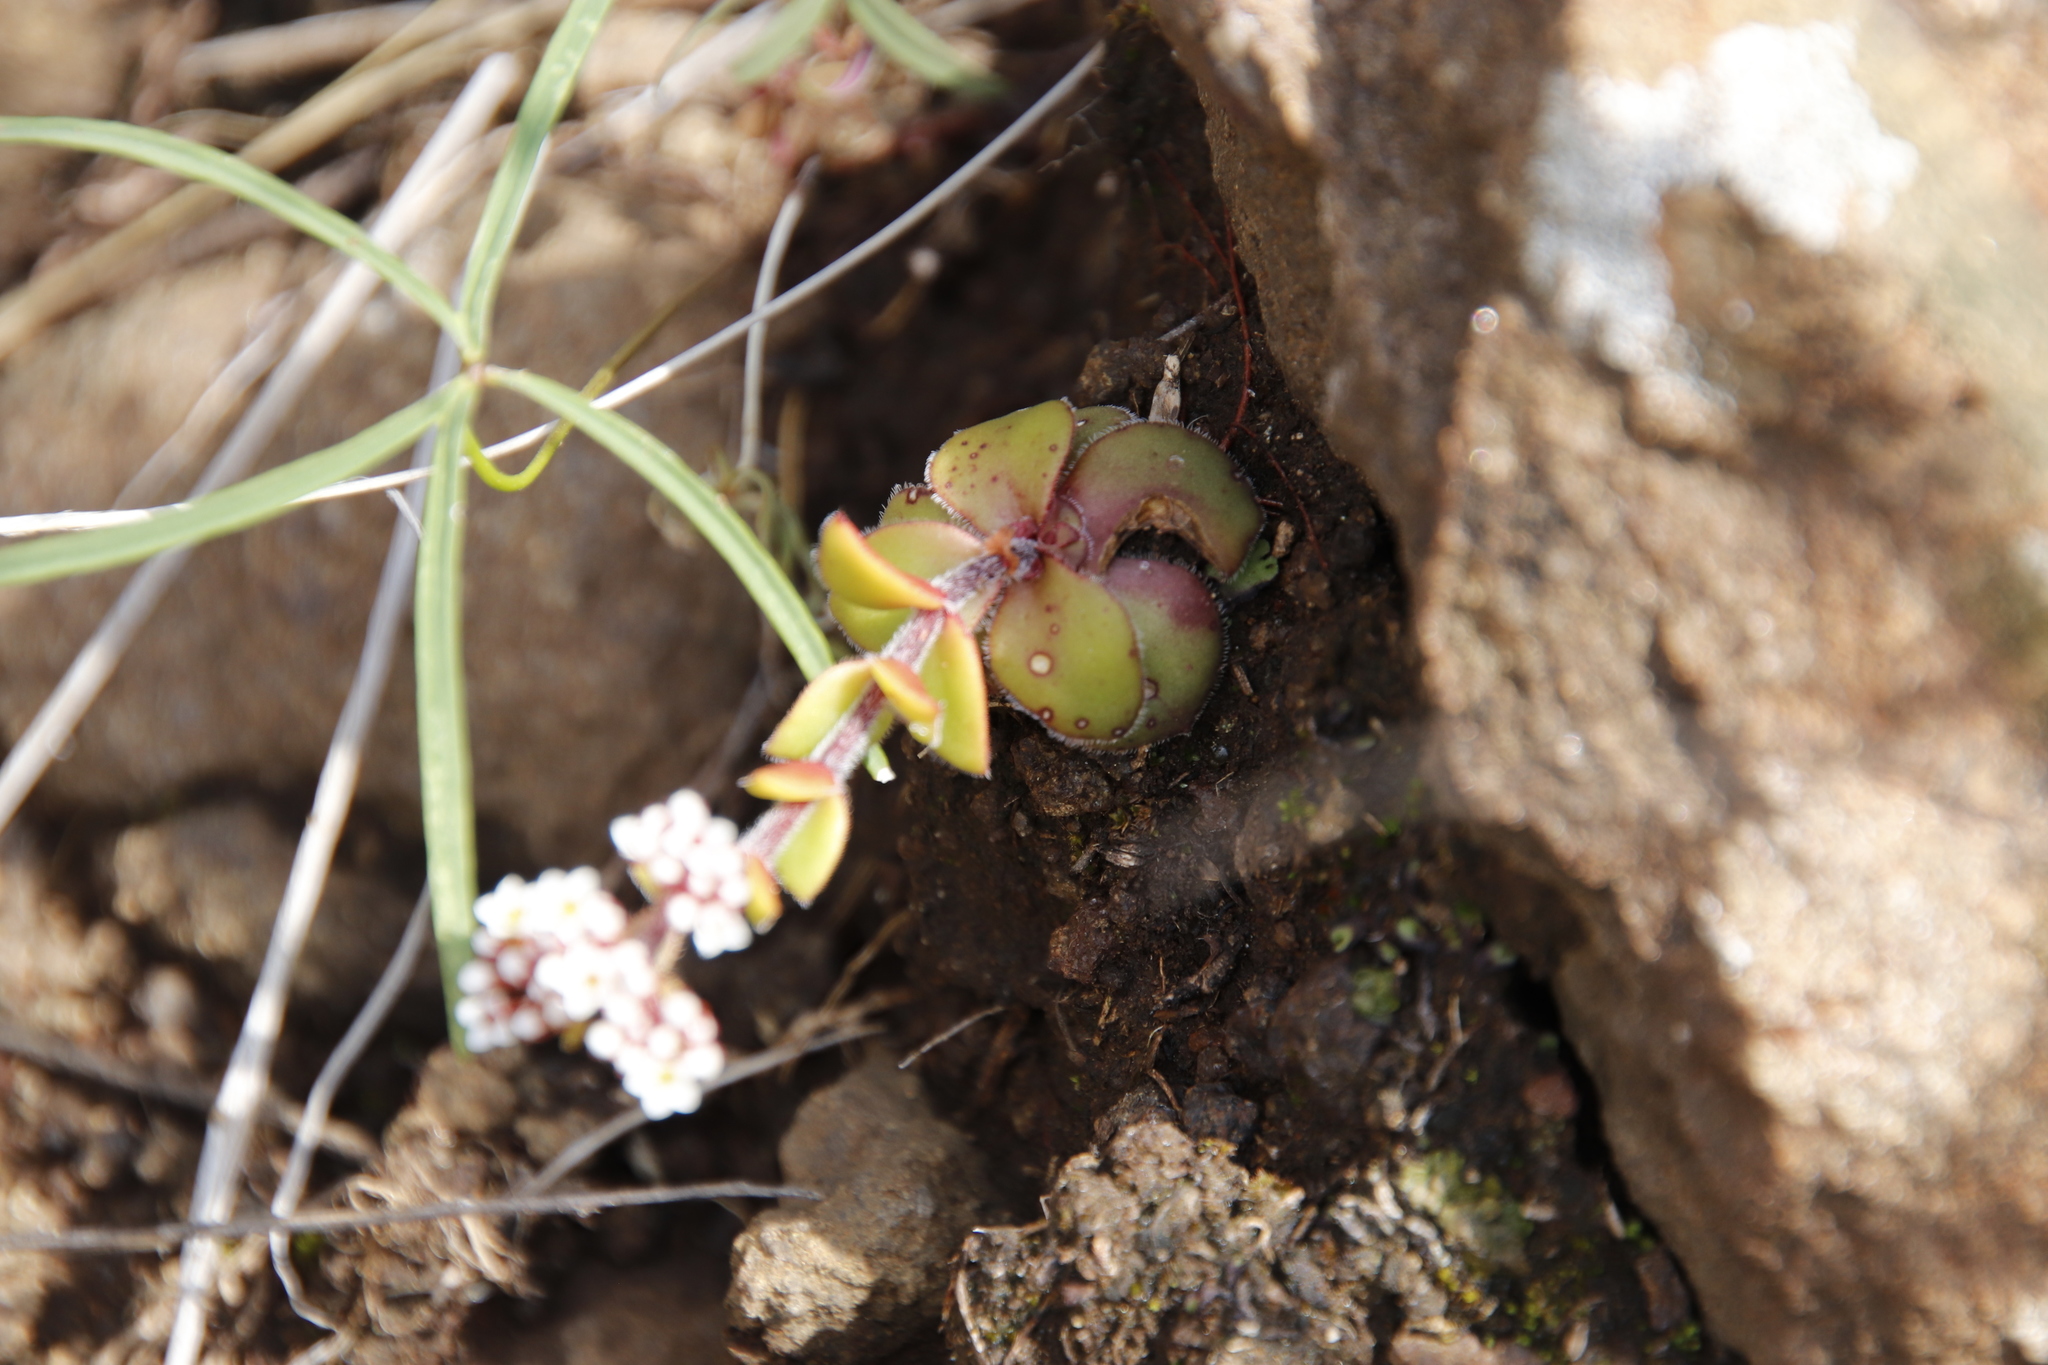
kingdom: Plantae
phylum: Tracheophyta
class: Magnoliopsida
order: Saxifragales
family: Crassulaceae
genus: Crassula
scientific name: Crassula natalensis
